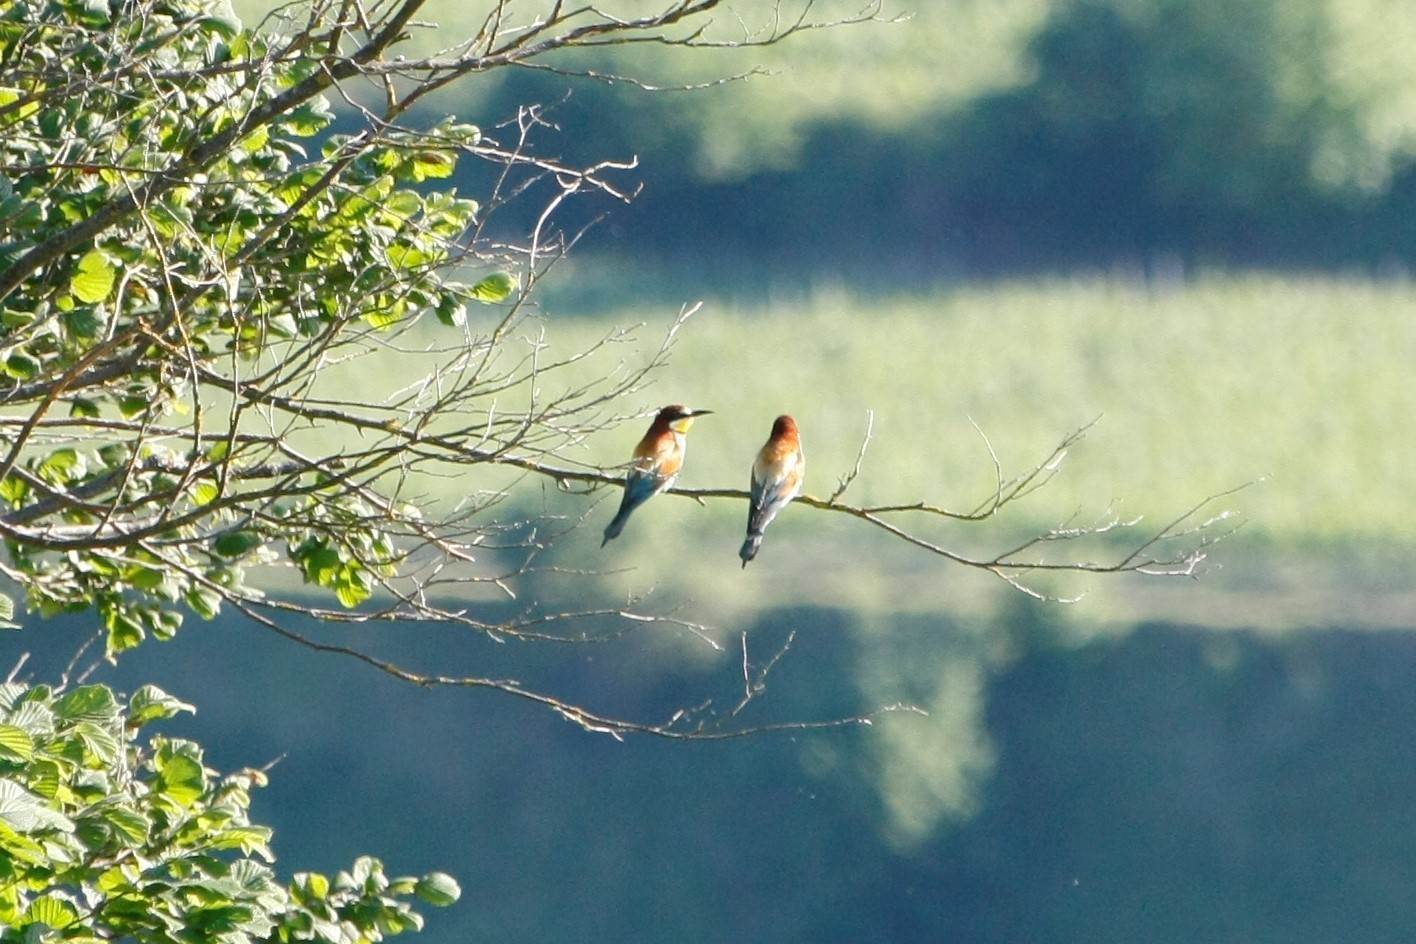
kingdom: Animalia
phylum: Chordata
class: Aves
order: Coraciiformes
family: Meropidae
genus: Merops
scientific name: Merops apiaster
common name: European bee-eater
